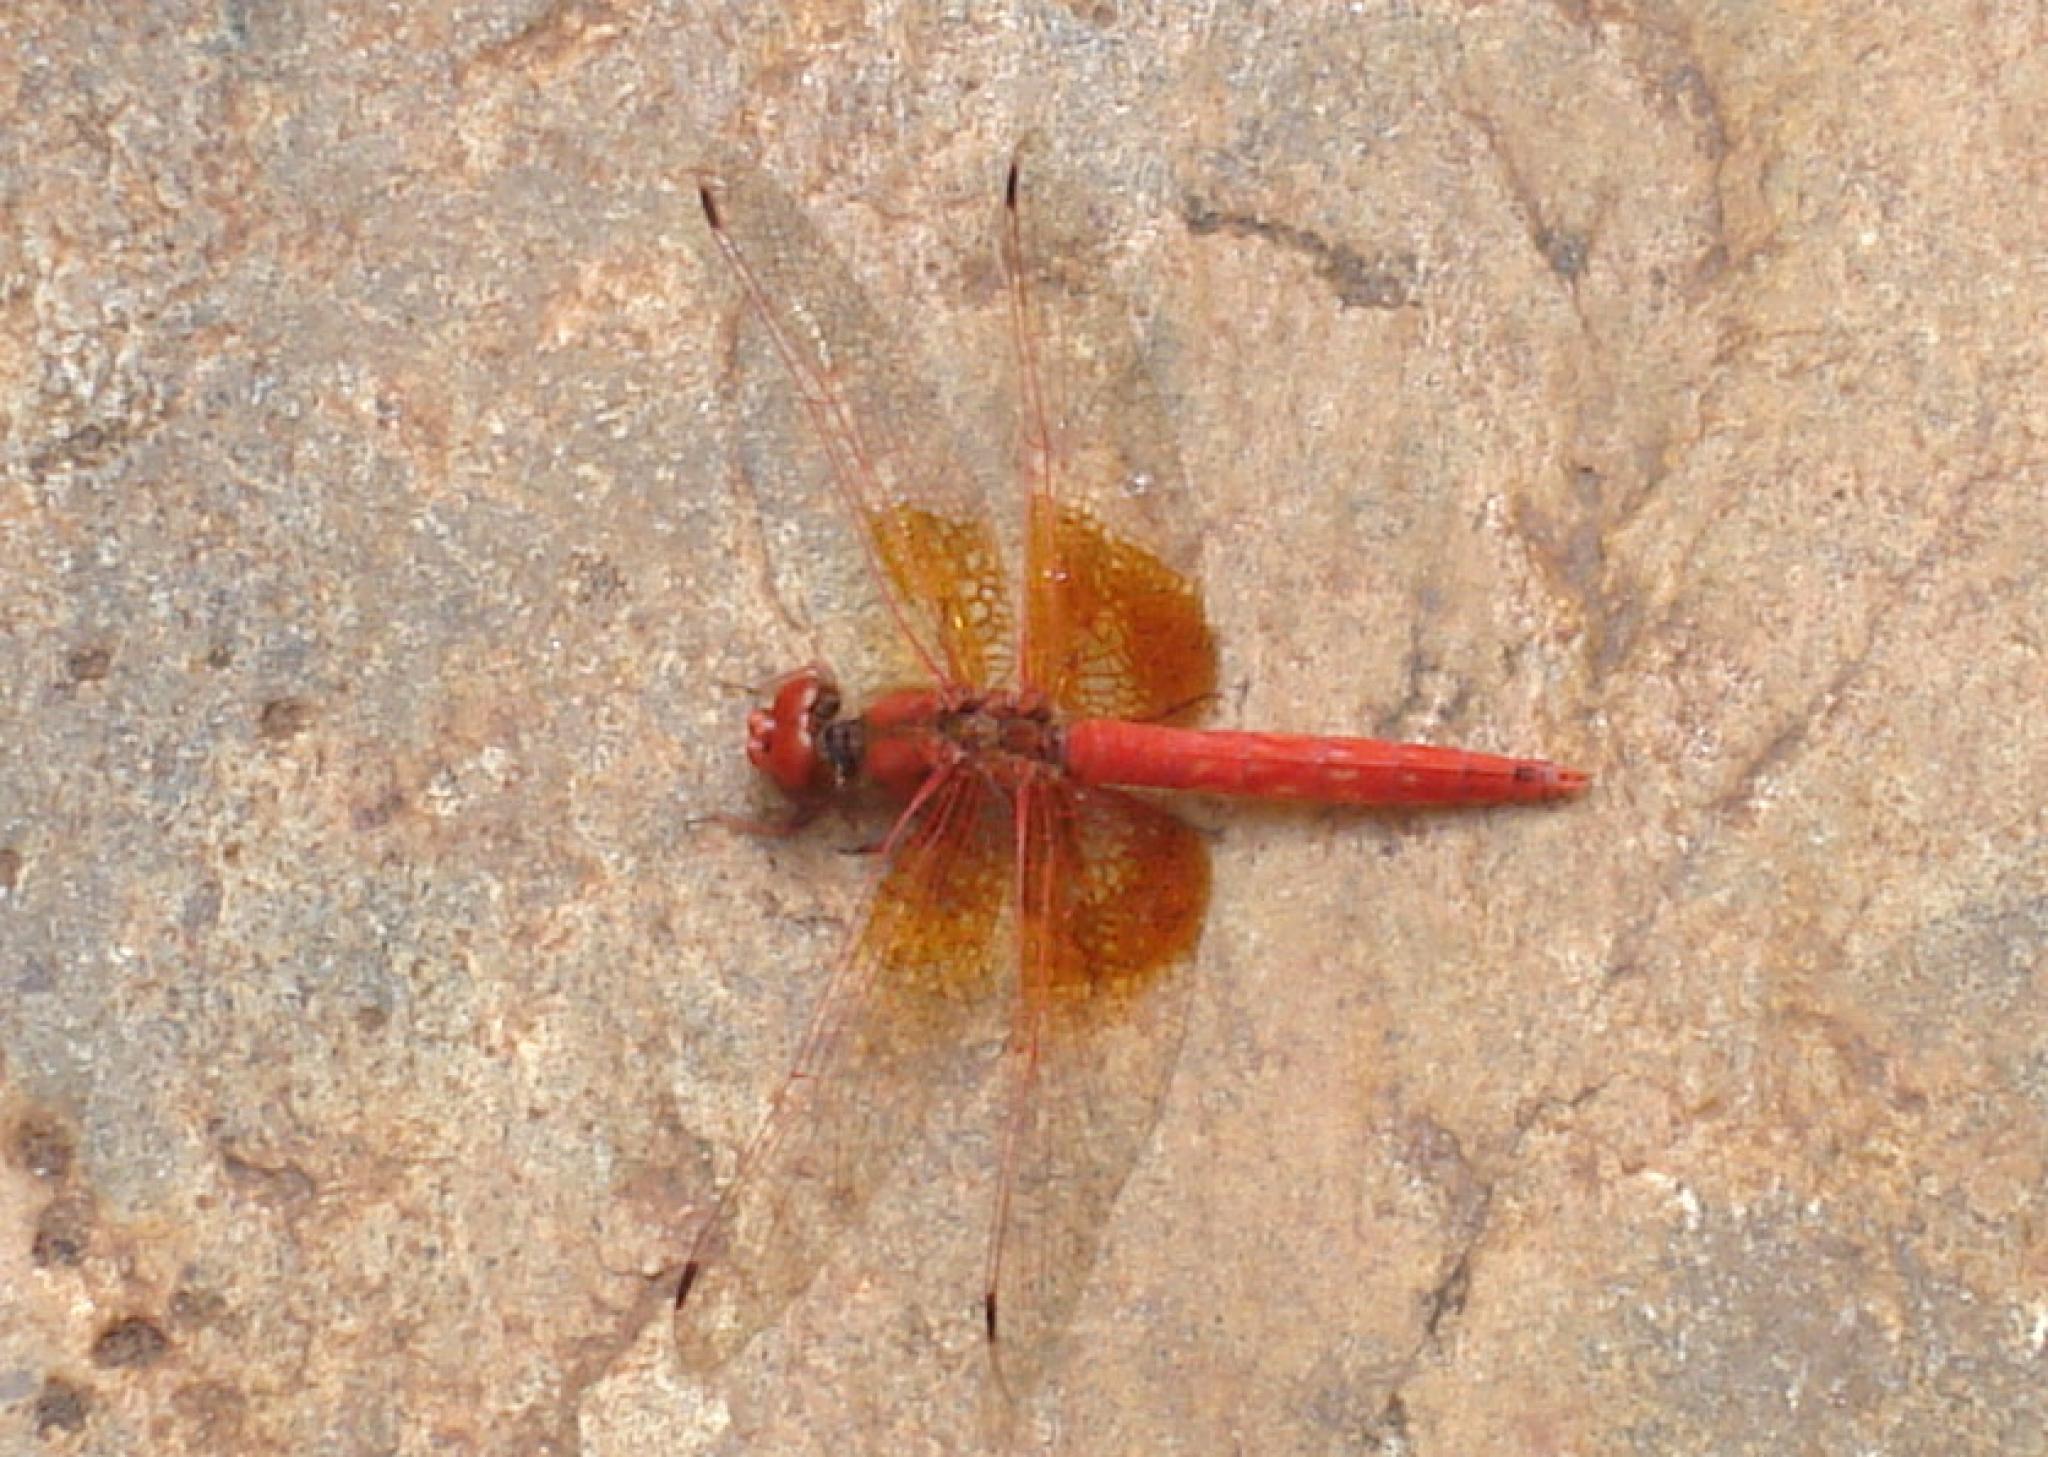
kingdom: Animalia
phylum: Arthropoda
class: Insecta
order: Odonata
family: Libellulidae
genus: Trithemis
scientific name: Trithemis kirbyi
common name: Kirby's dropwing
